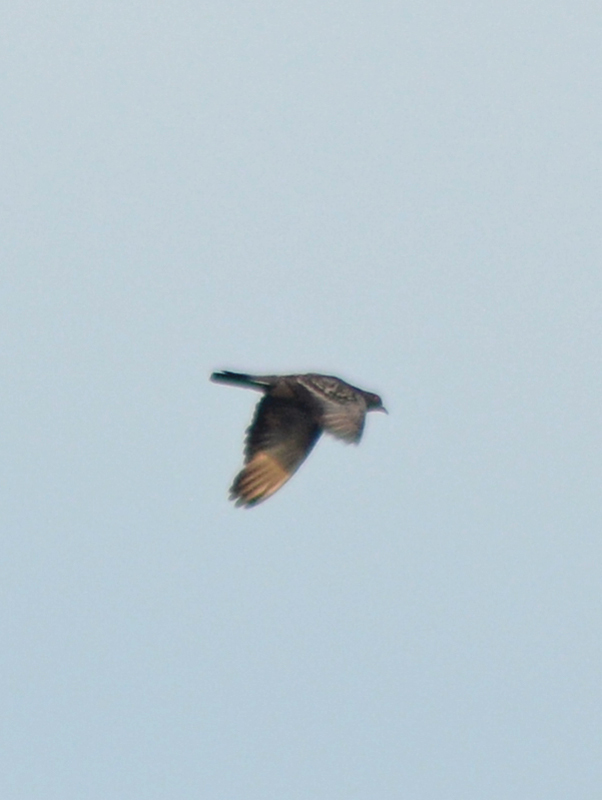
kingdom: Animalia
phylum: Chordata
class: Aves
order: Columbiformes
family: Columbidae
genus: Columba
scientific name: Columba livia
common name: Rock pigeon
